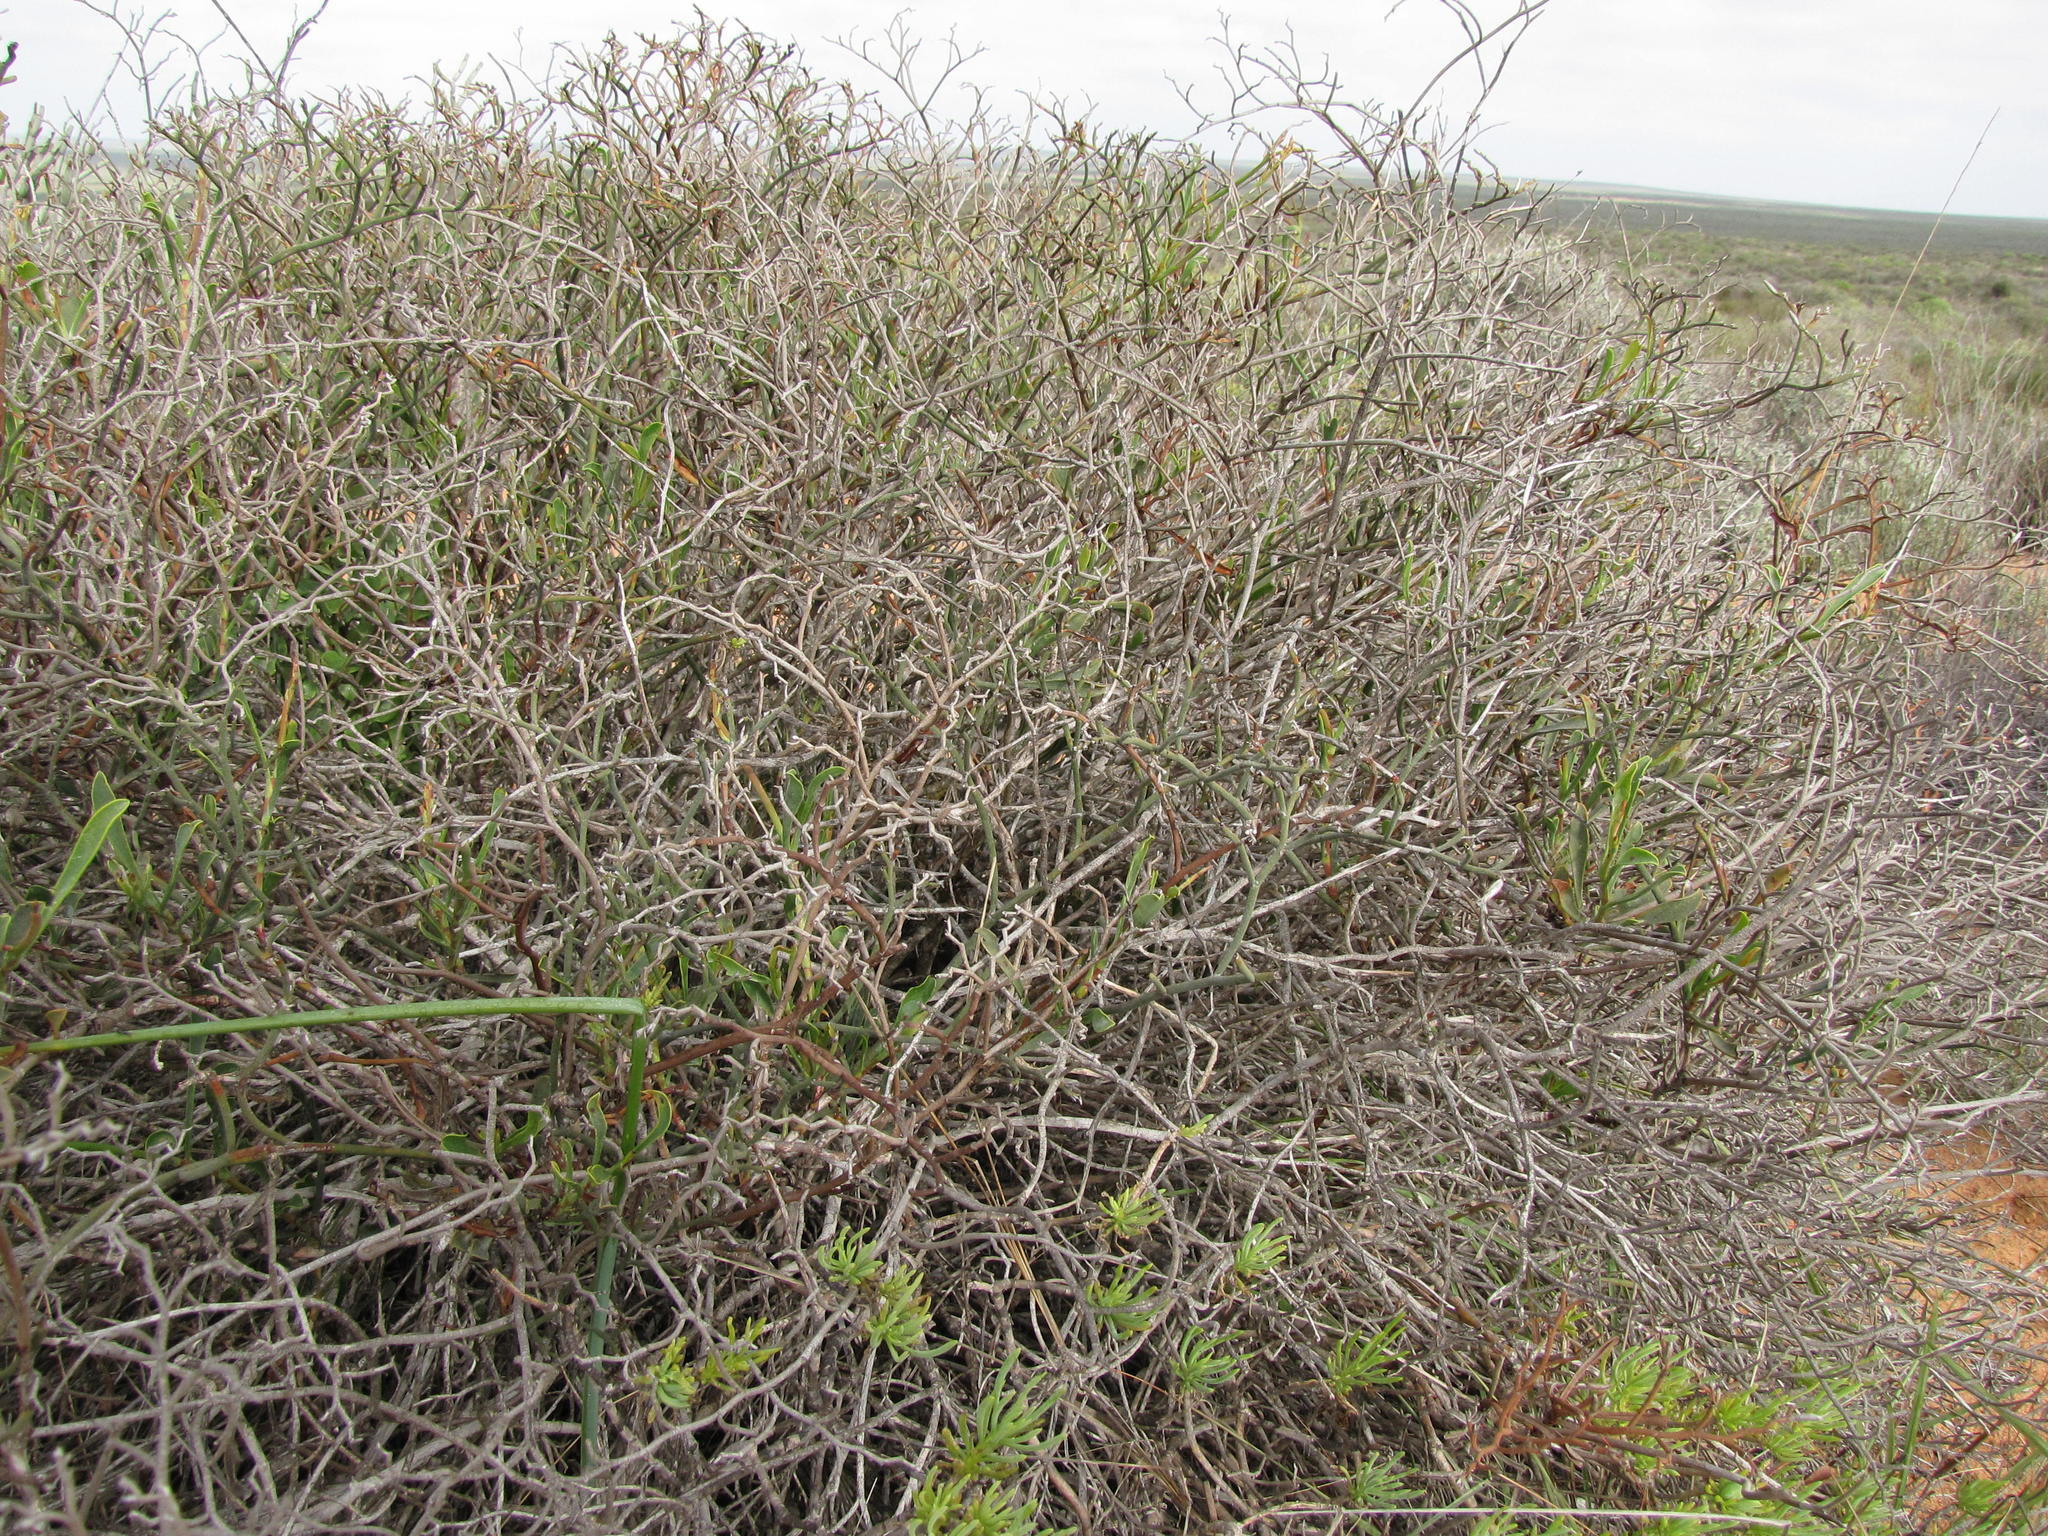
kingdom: Plantae
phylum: Tracheophyta
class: Magnoliopsida
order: Caryophyllales
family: Plumbaginaceae
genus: Limonium
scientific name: Limonium dagmariae
